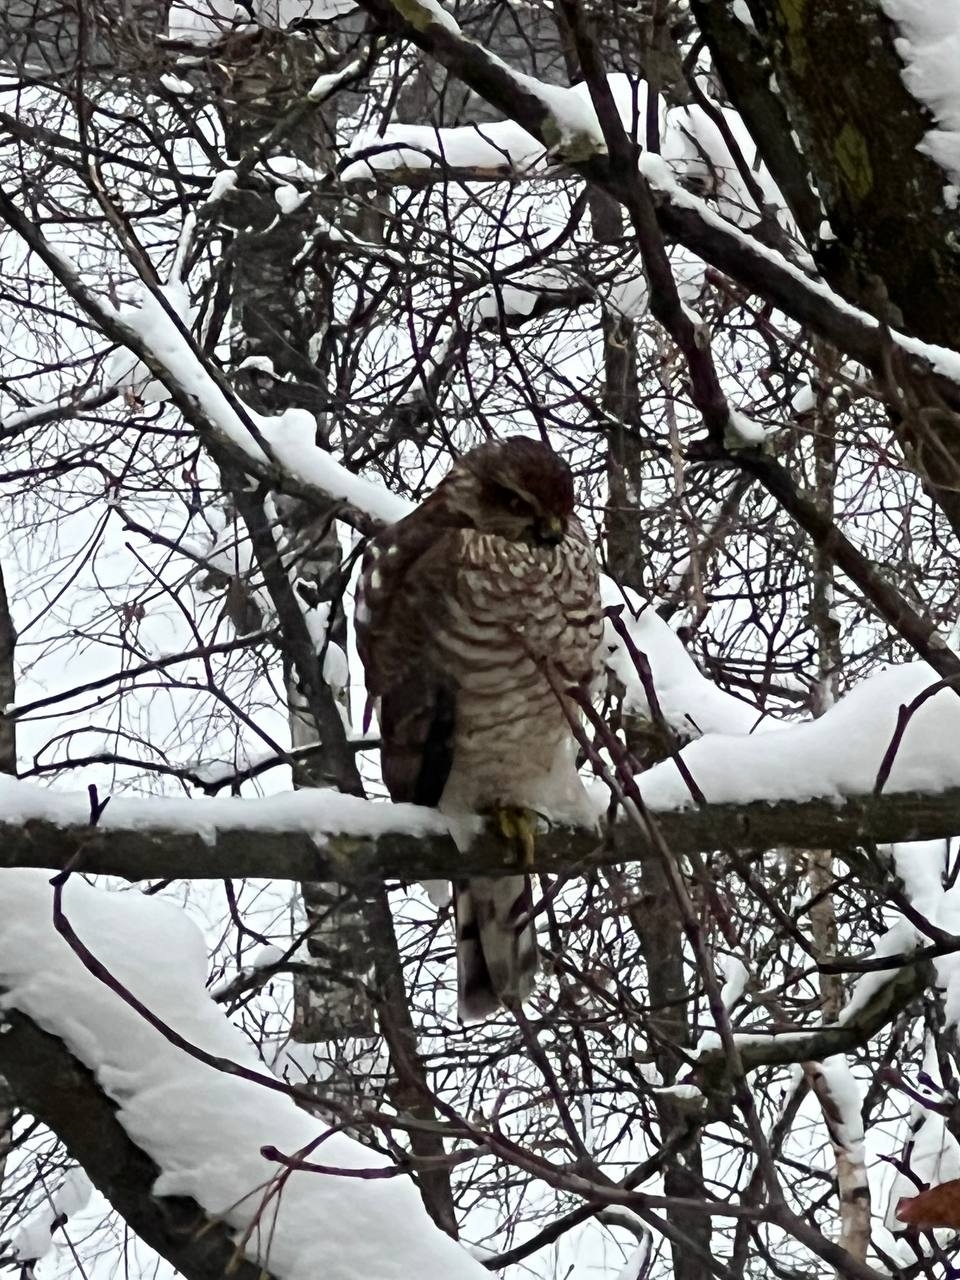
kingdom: Animalia
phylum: Chordata
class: Aves
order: Accipitriformes
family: Accipitridae
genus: Accipiter
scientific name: Accipiter nisus
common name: Eurasian sparrowhawk
